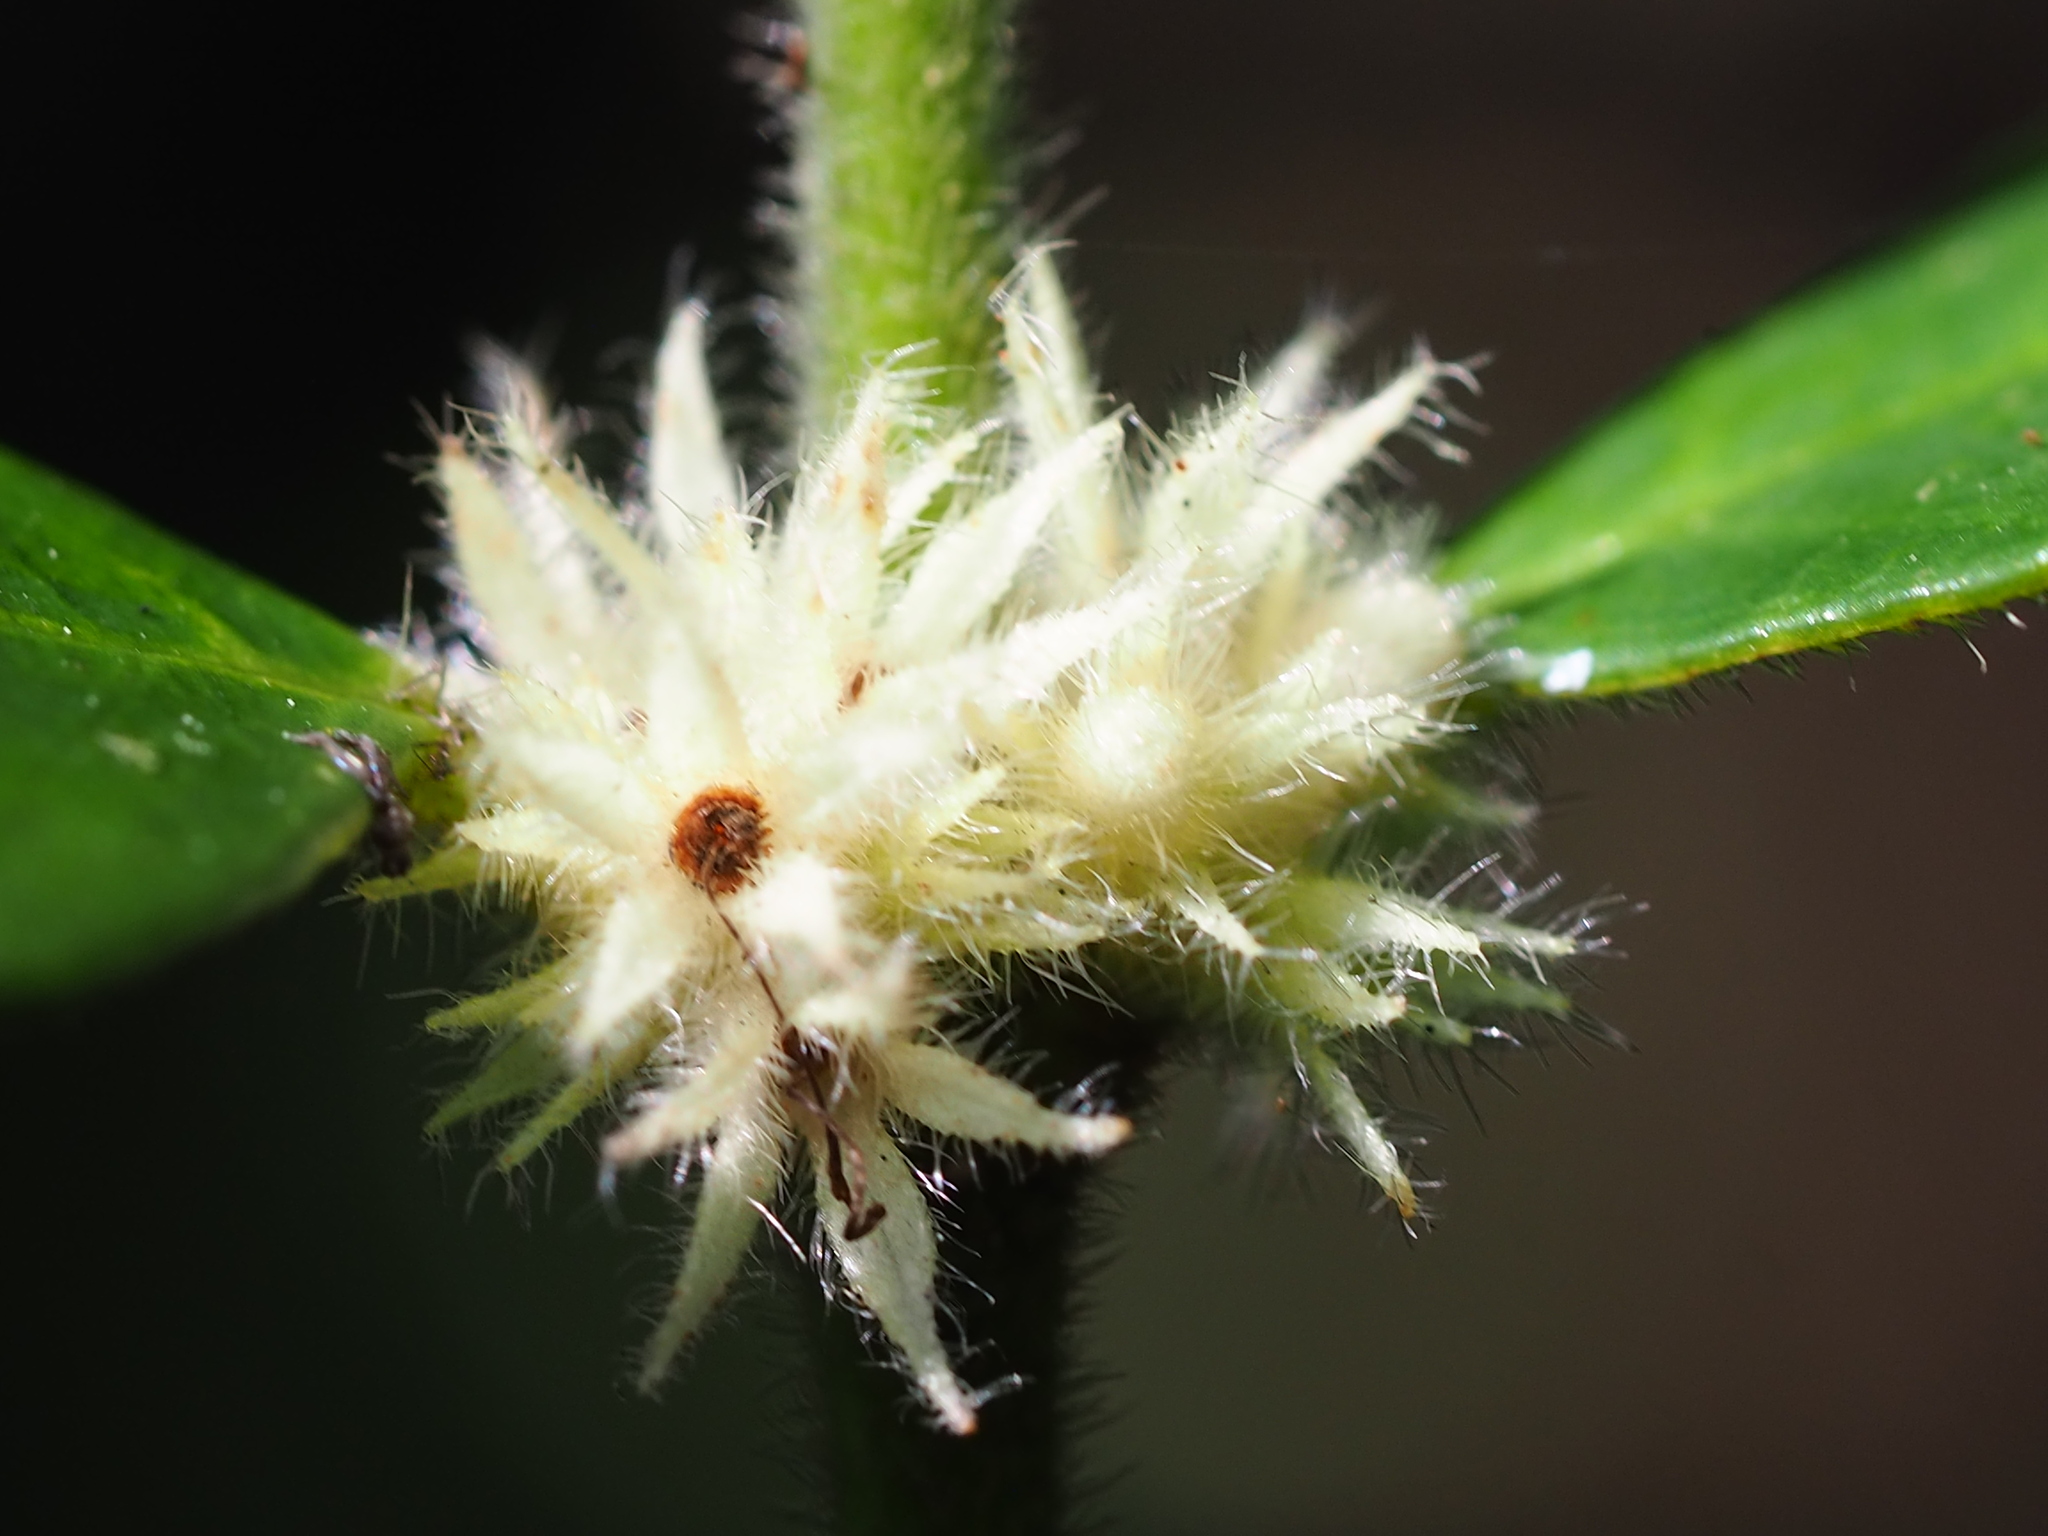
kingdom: Plantae
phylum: Tracheophyta
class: Magnoliopsida
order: Gentianales
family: Rubiaceae
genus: Lasianthus
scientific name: Lasianthus curtisii
